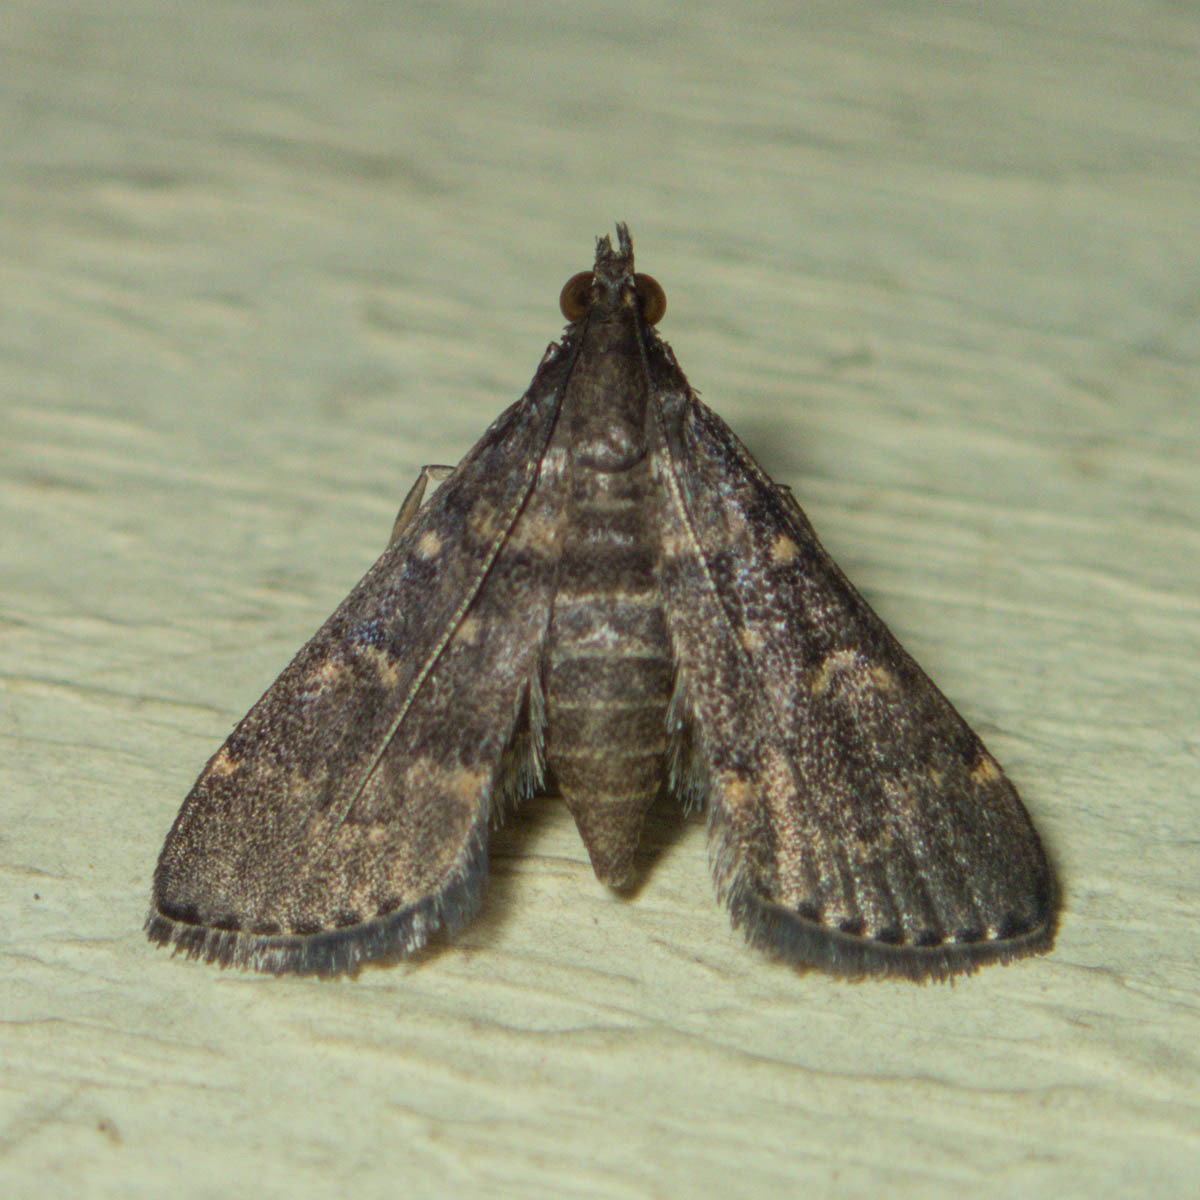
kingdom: Animalia
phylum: Arthropoda
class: Insecta
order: Lepidoptera
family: Crambidae
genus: Symmoracma
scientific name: Symmoracma minoralis
